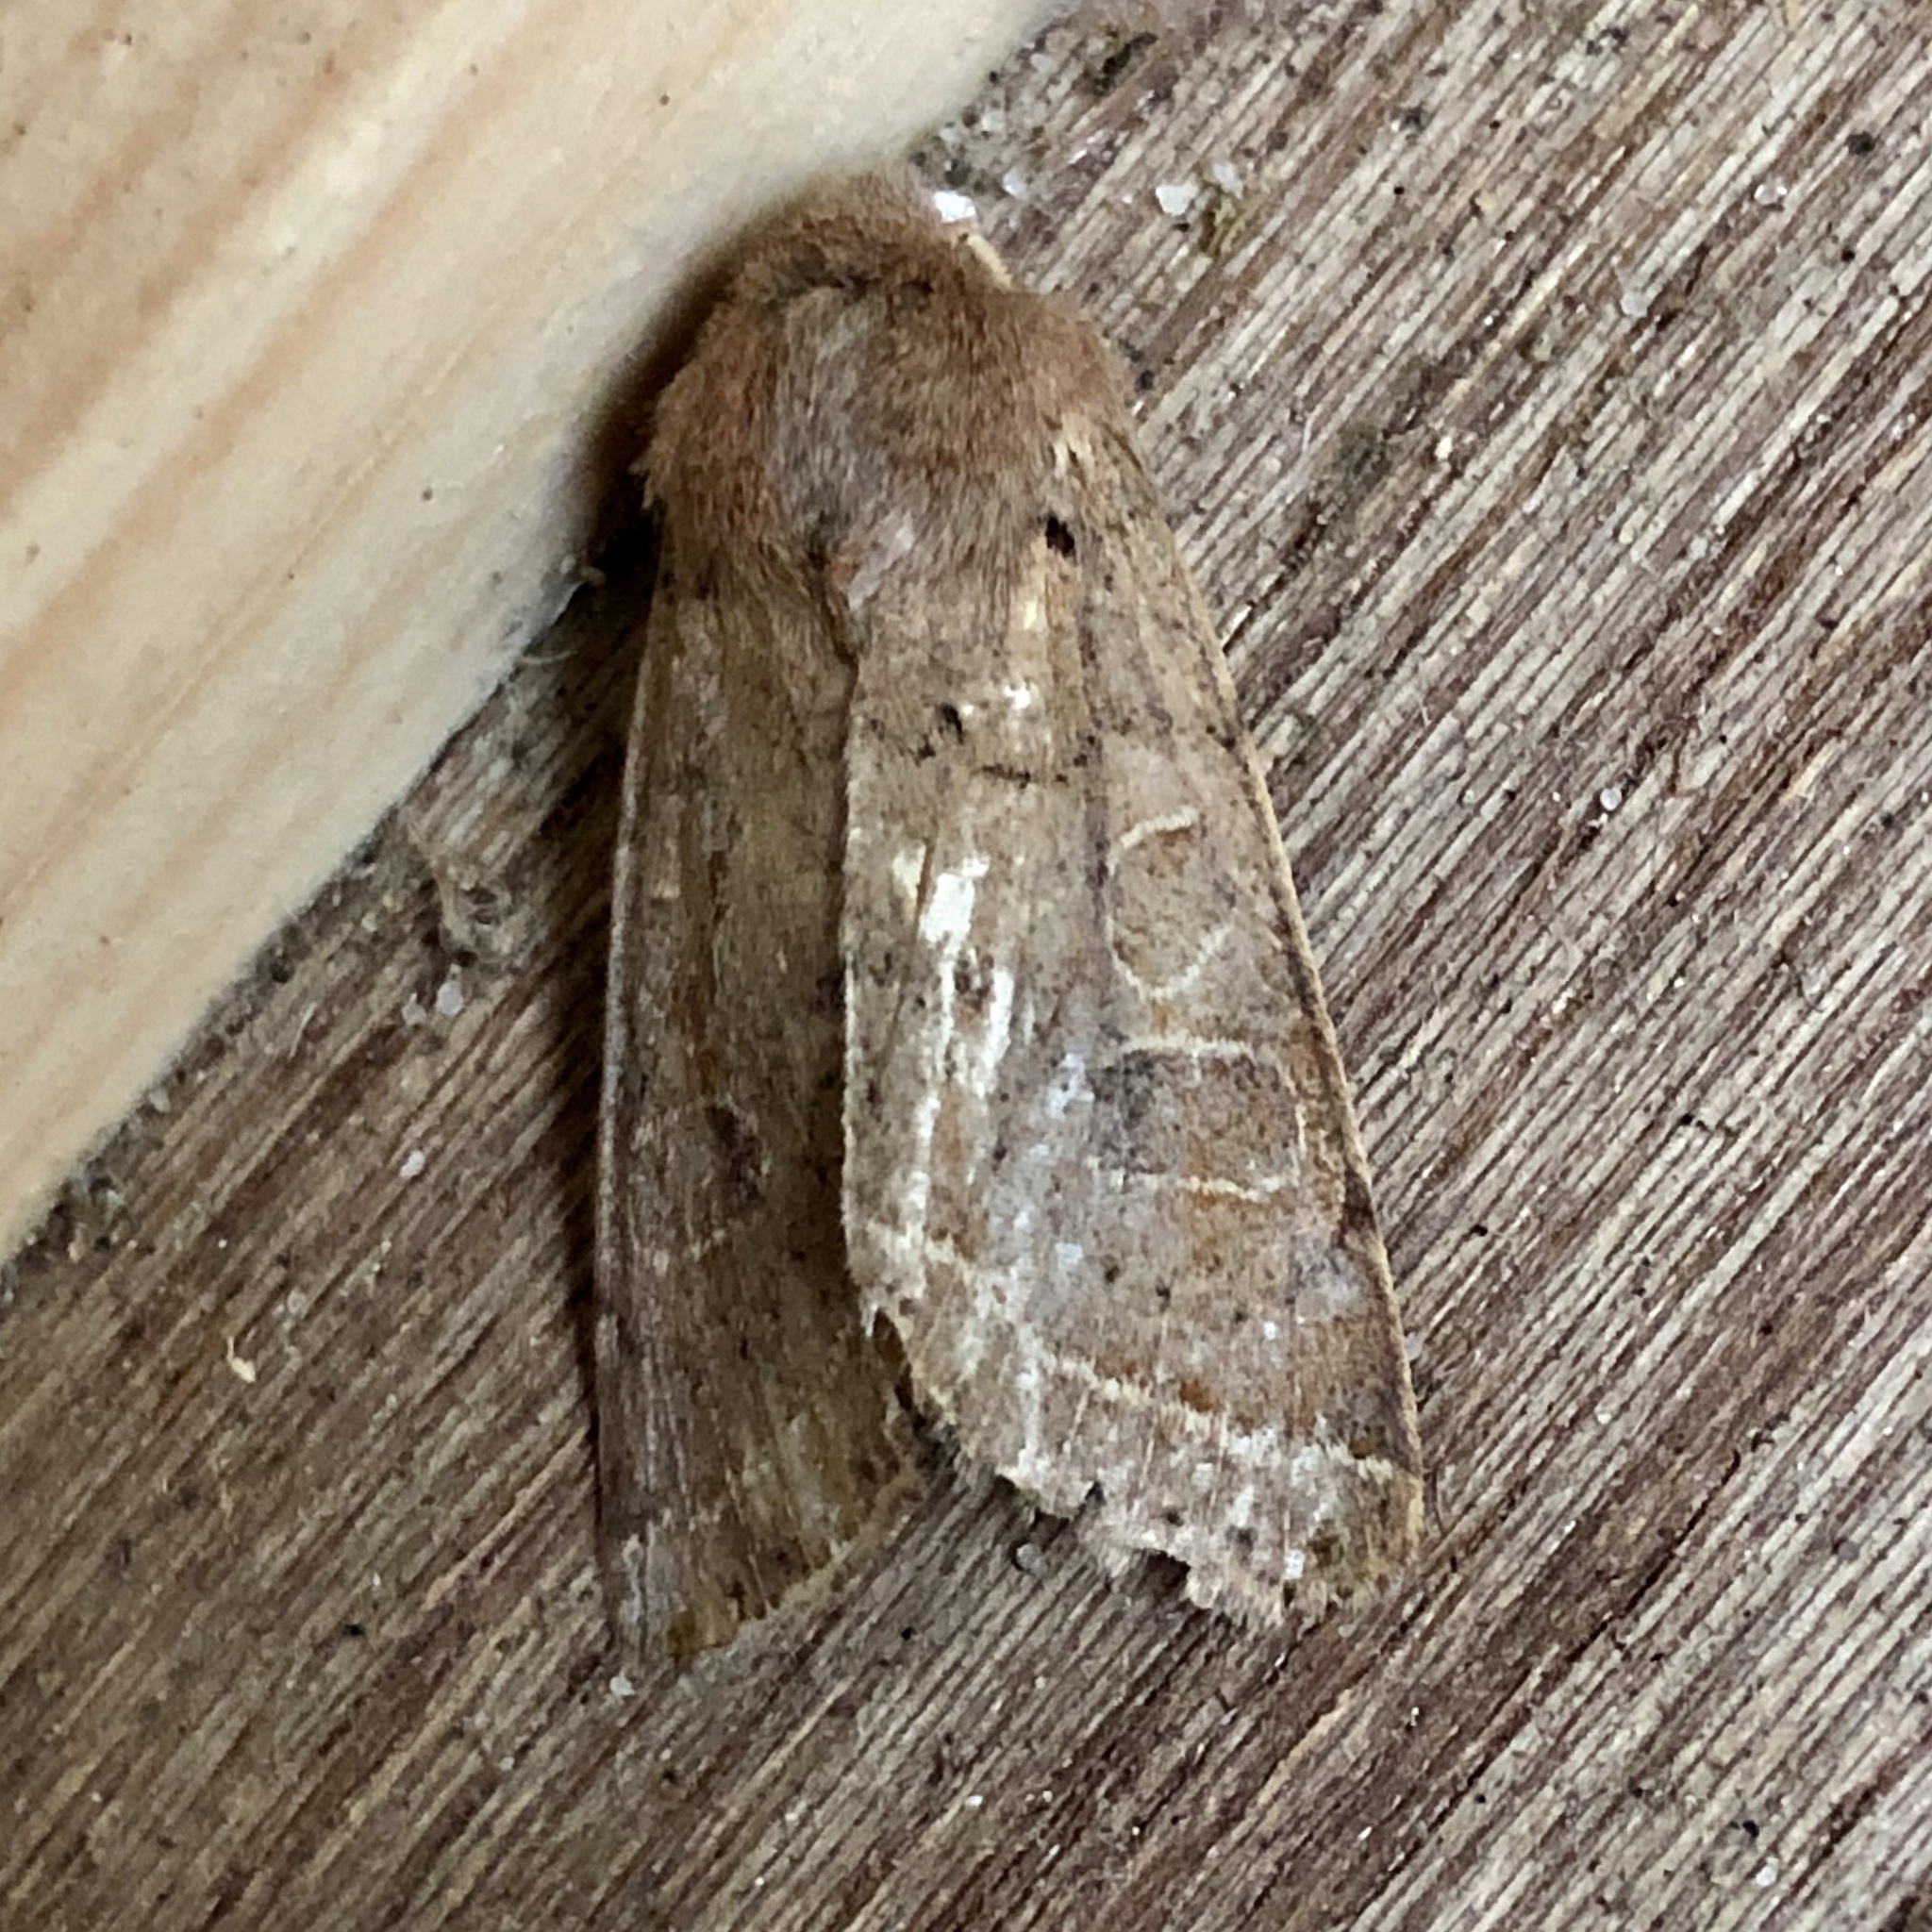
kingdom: Animalia
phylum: Arthropoda
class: Insecta
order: Lepidoptera
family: Noctuidae
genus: Orthosia
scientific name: Orthosia cerasi
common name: Common quaker
